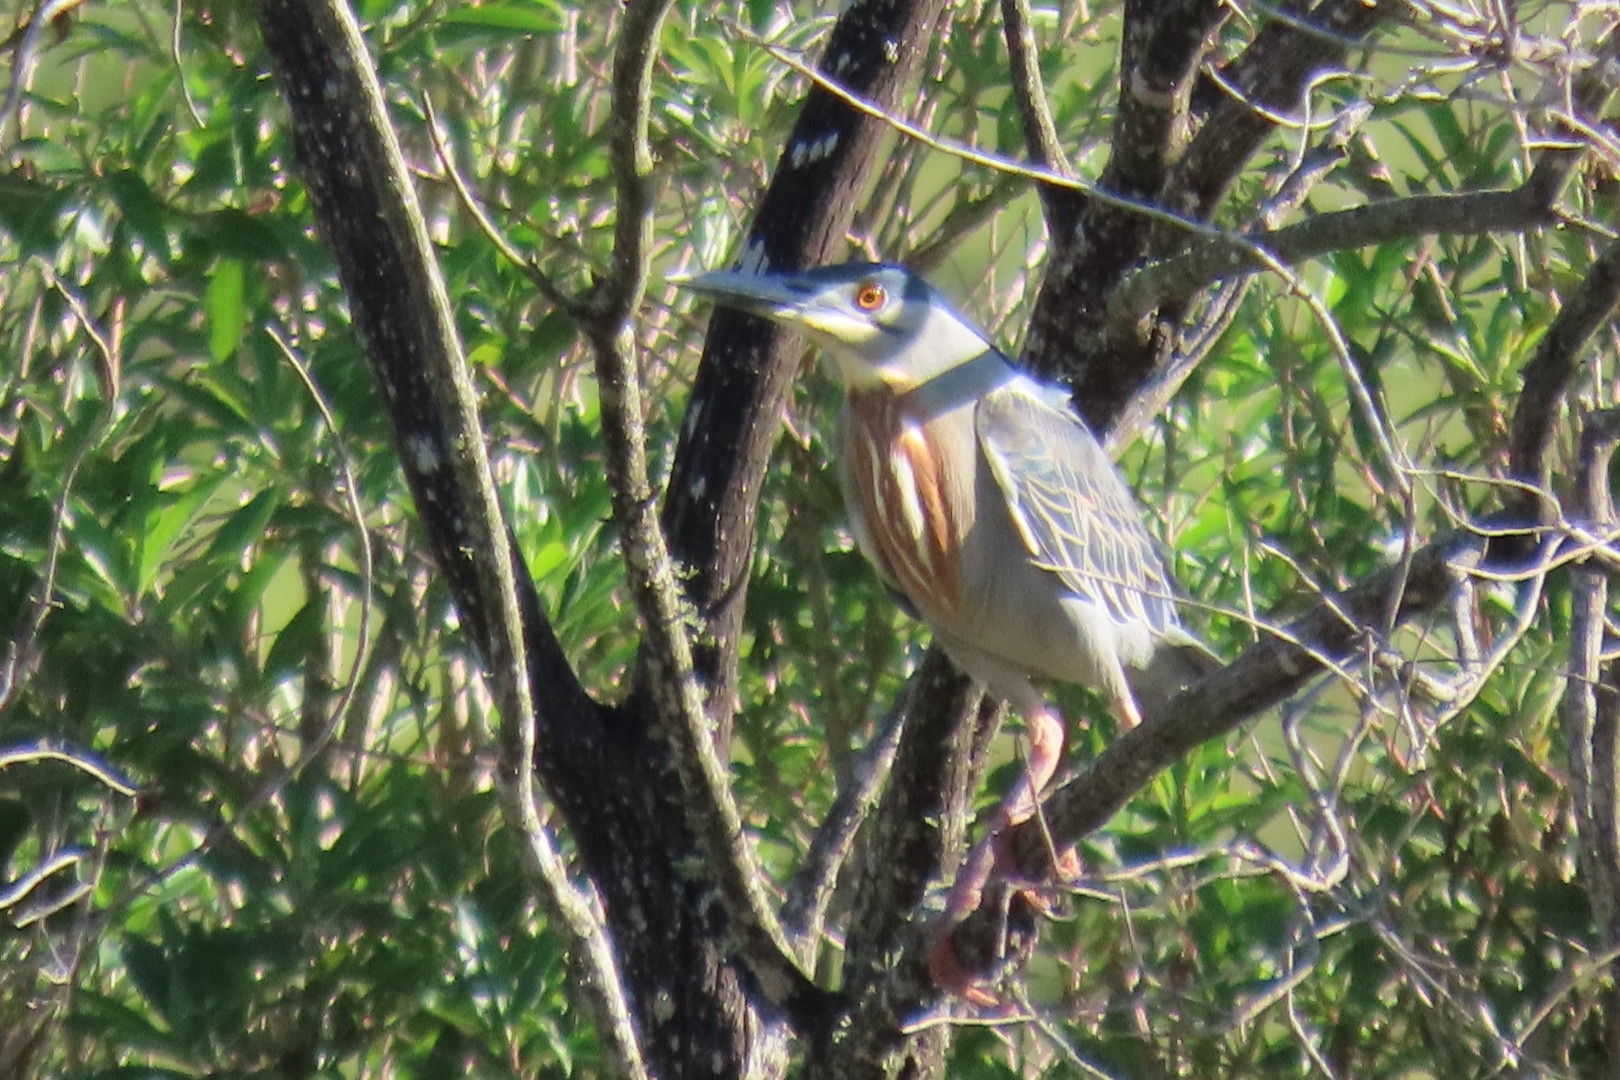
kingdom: Animalia
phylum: Chordata
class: Aves
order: Pelecaniformes
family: Ardeidae
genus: Butorides
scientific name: Butorides striata
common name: Striated heron
